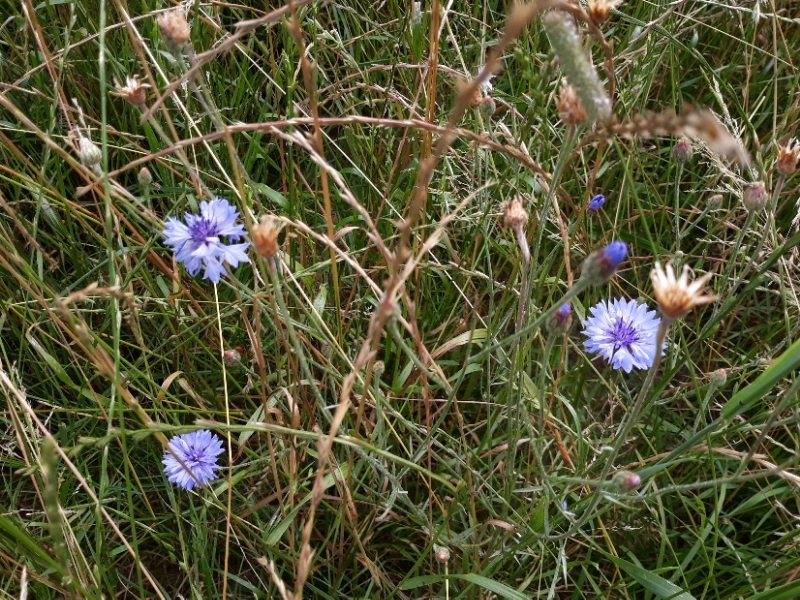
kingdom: Plantae
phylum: Tracheophyta
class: Magnoliopsida
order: Asterales
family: Asteraceae
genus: Centaurea
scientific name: Centaurea cyanus
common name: Cornflower
